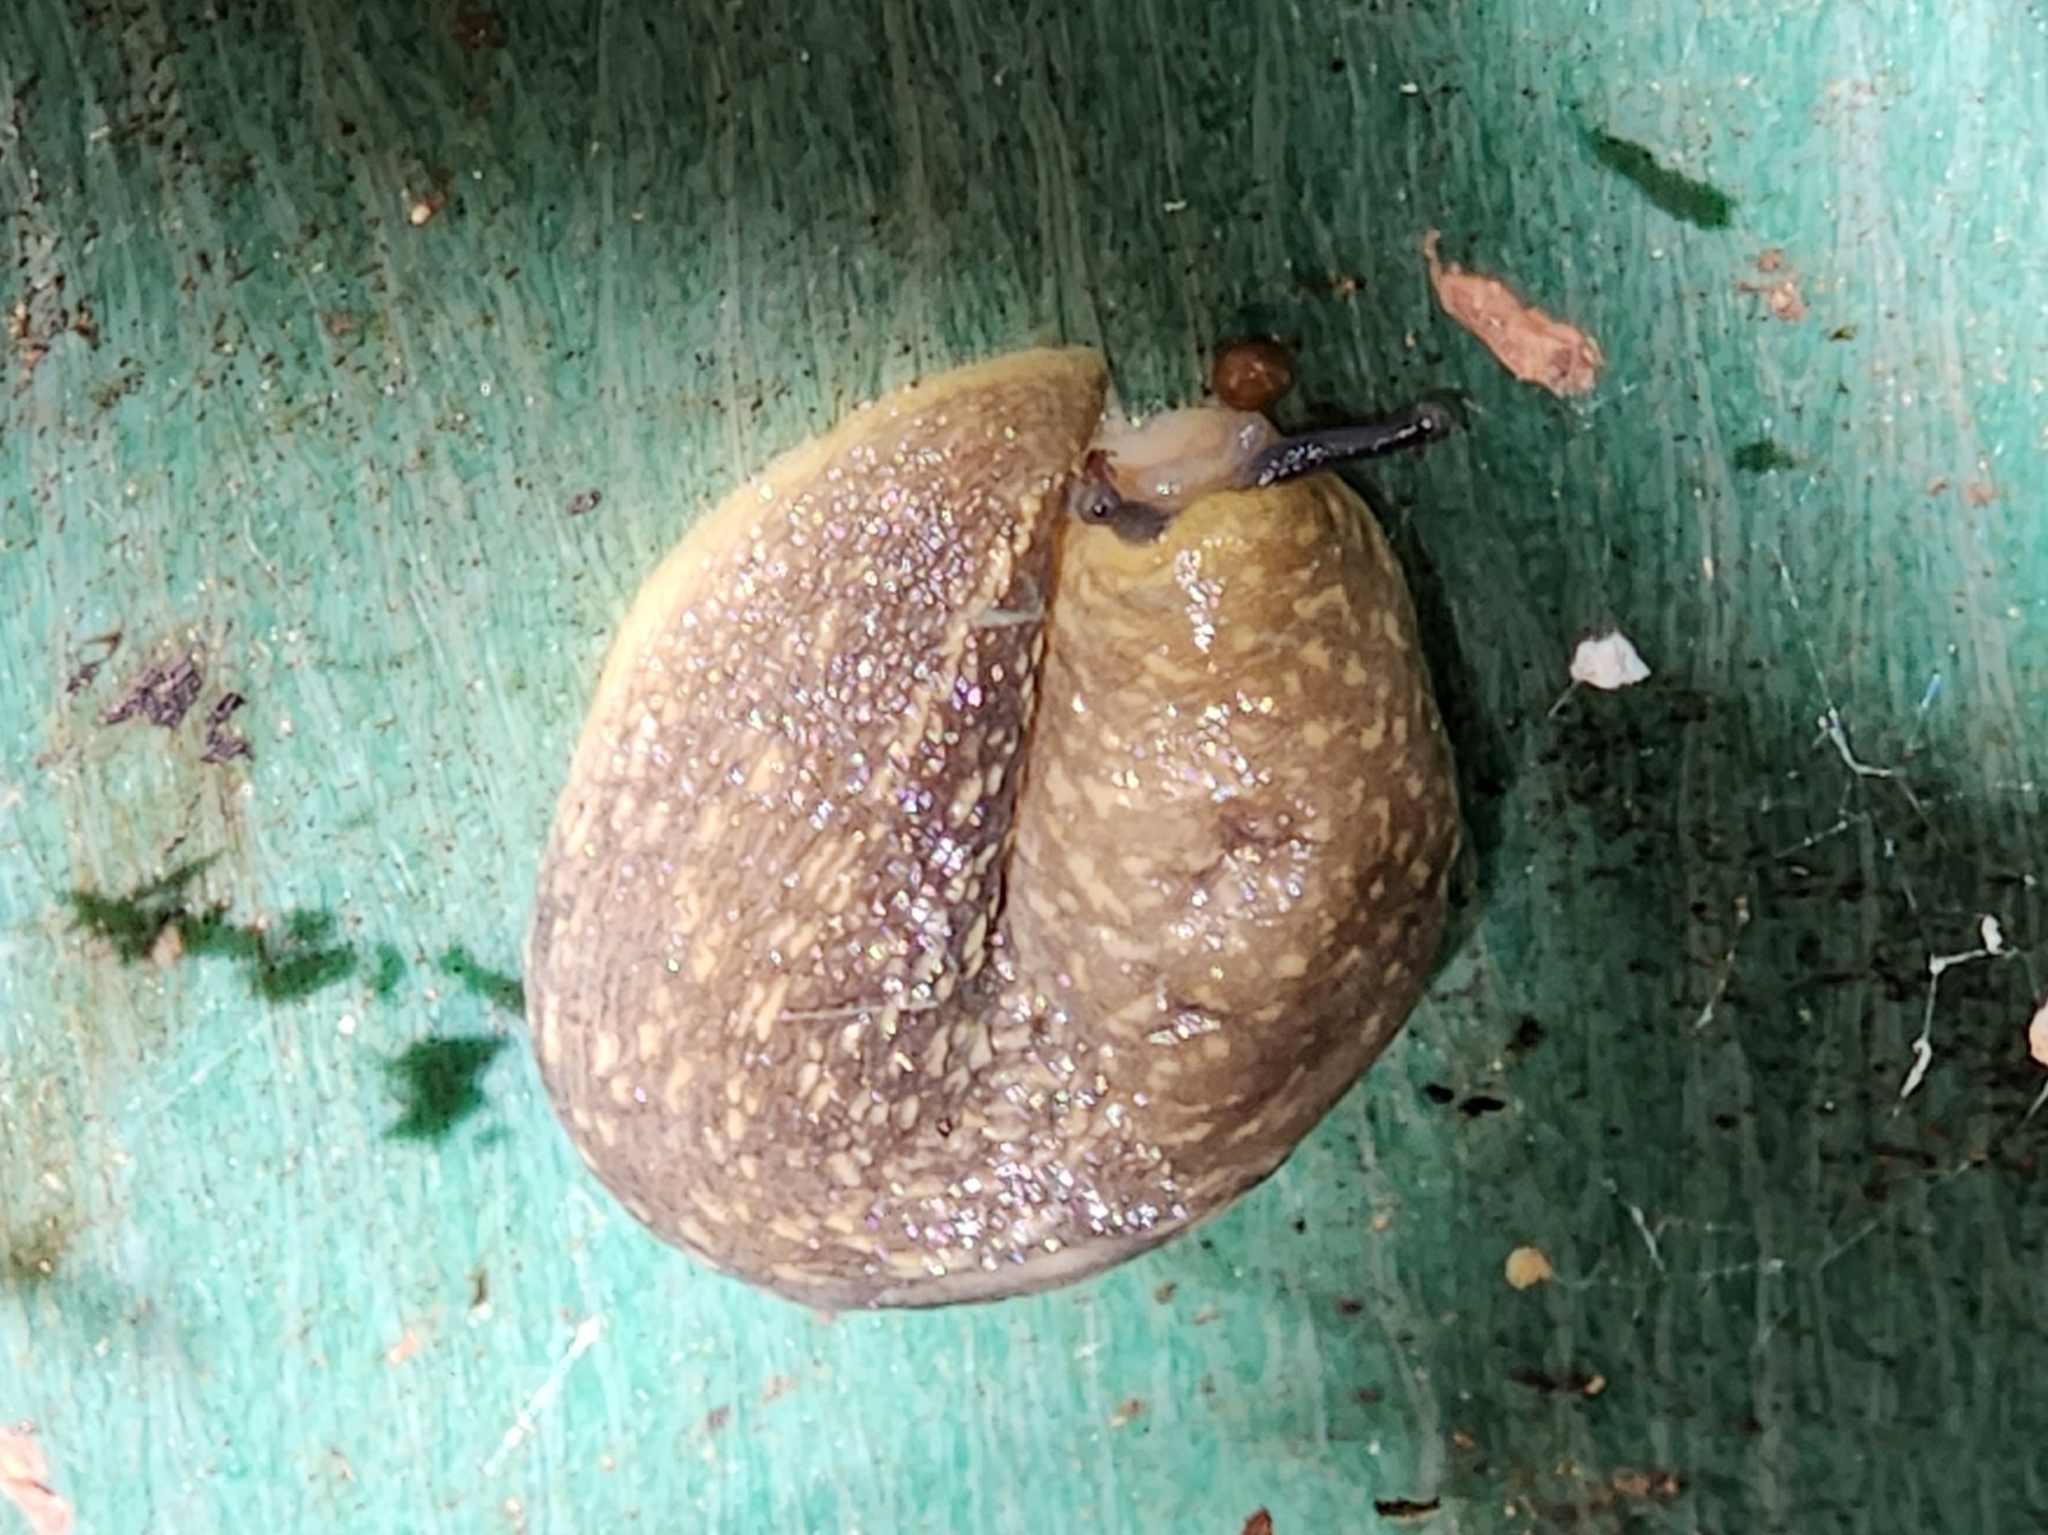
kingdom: Animalia
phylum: Mollusca
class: Gastropoda
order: Stylommatophora
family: Limacidae
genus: Limacus
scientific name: Limacus flavus
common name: Yellow gardenslug
